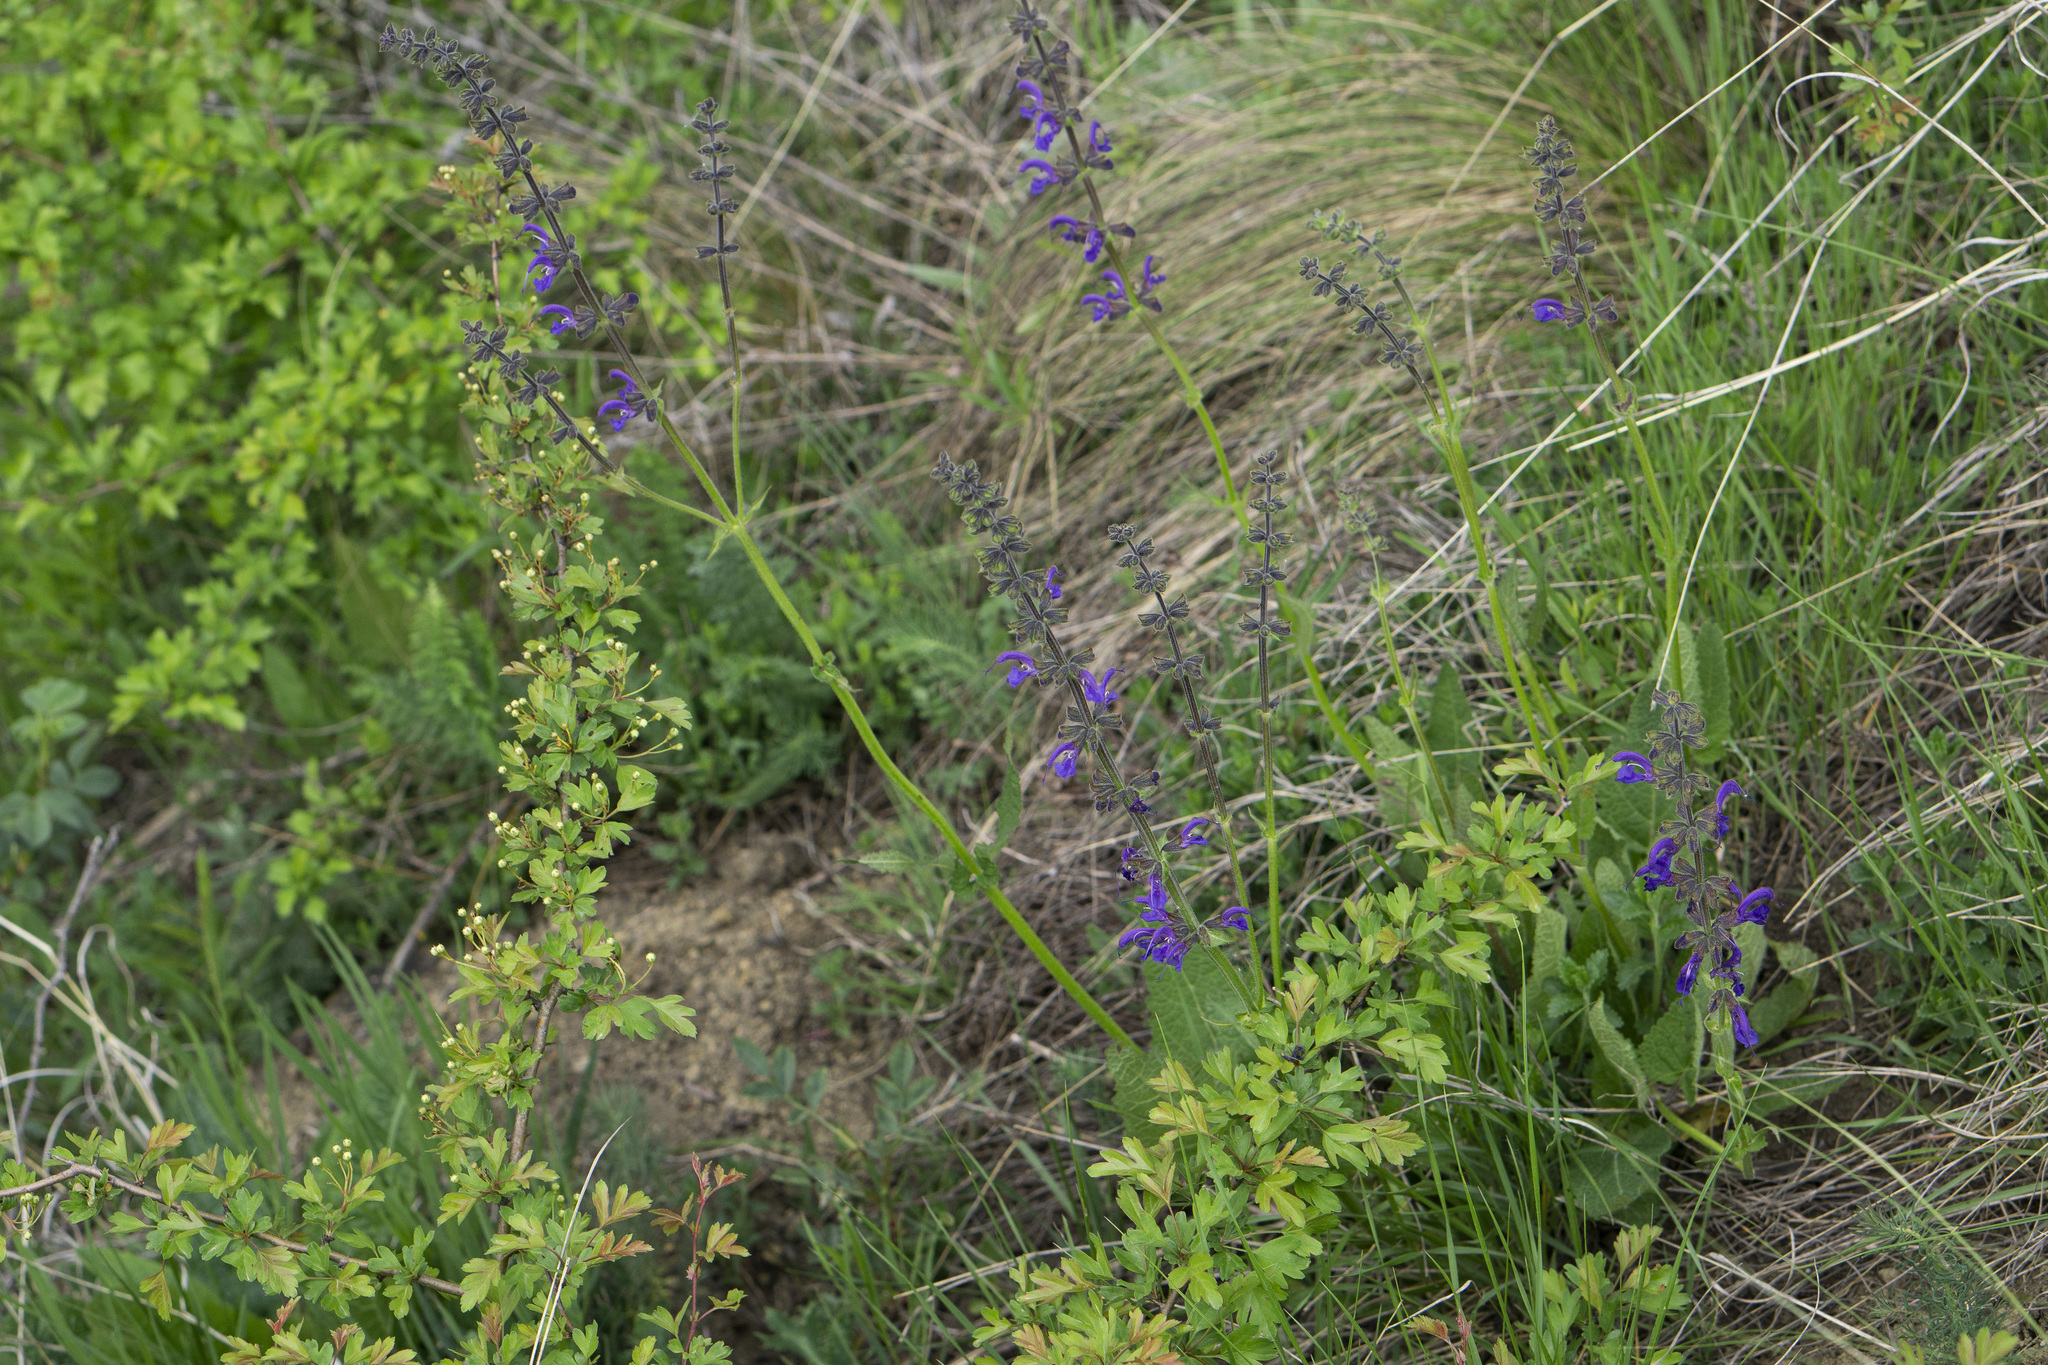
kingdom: Plantae
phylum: Tracheophyta
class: Magnoliopsida
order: Lamiales
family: Lamiaceae
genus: Salvia
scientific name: Salvia pratensis
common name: Meadow sage
